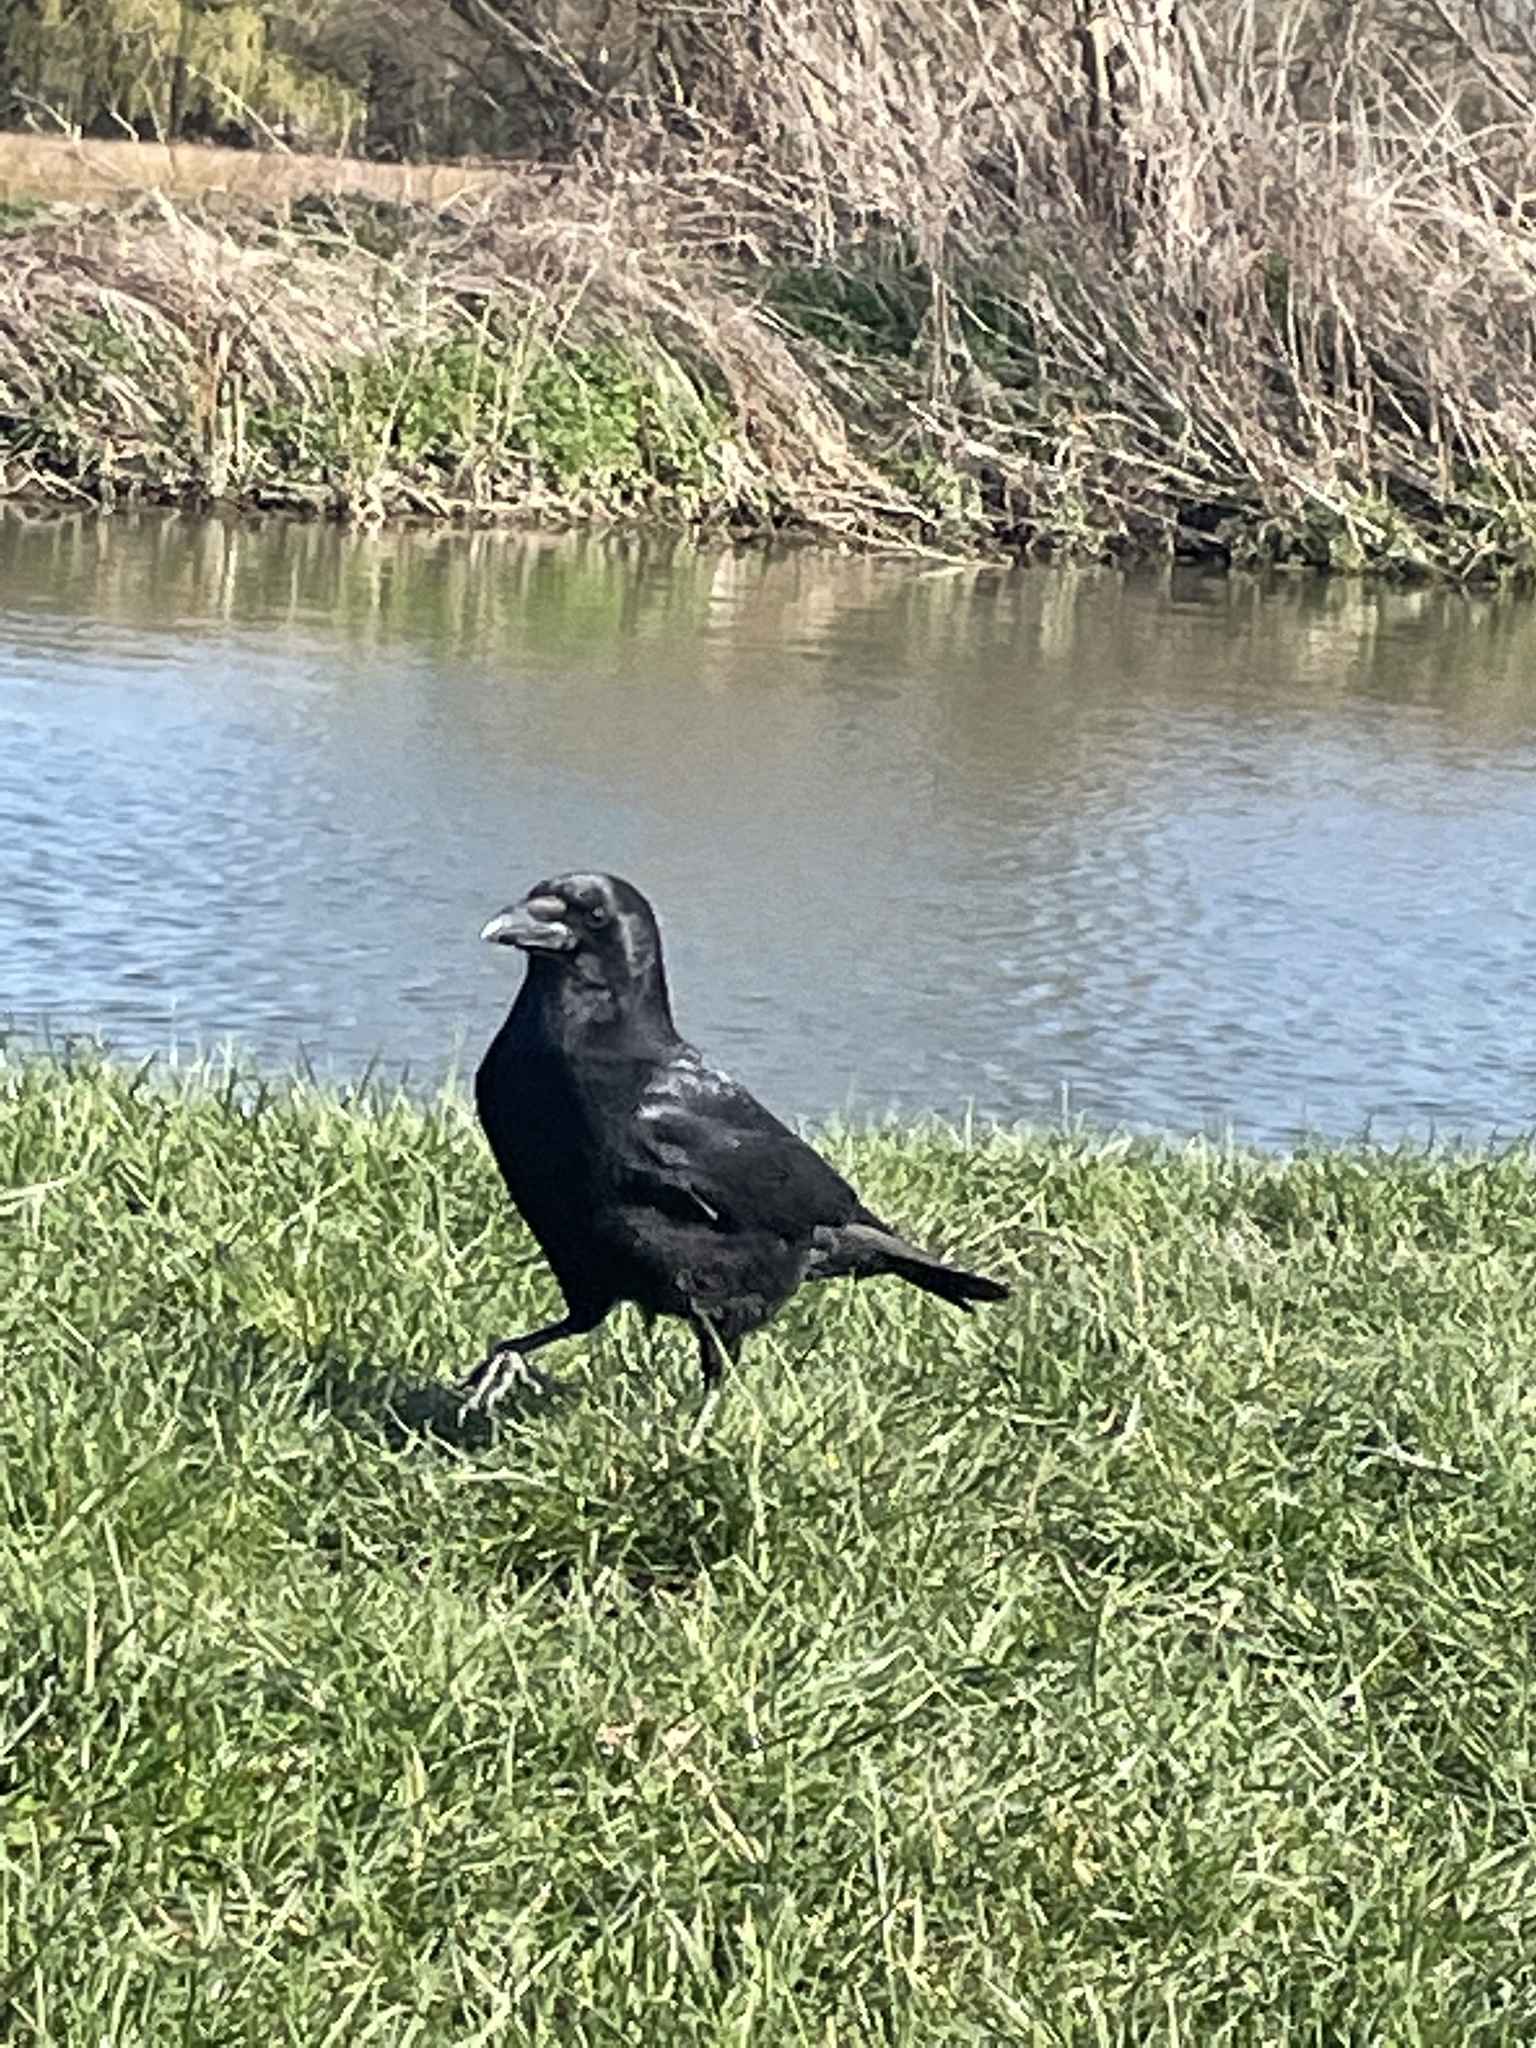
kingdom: Animalia
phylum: Chordata
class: Aves
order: Passeriformes
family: Corvidae
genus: Corvus
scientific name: Corvus corone
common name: Carrion crow
